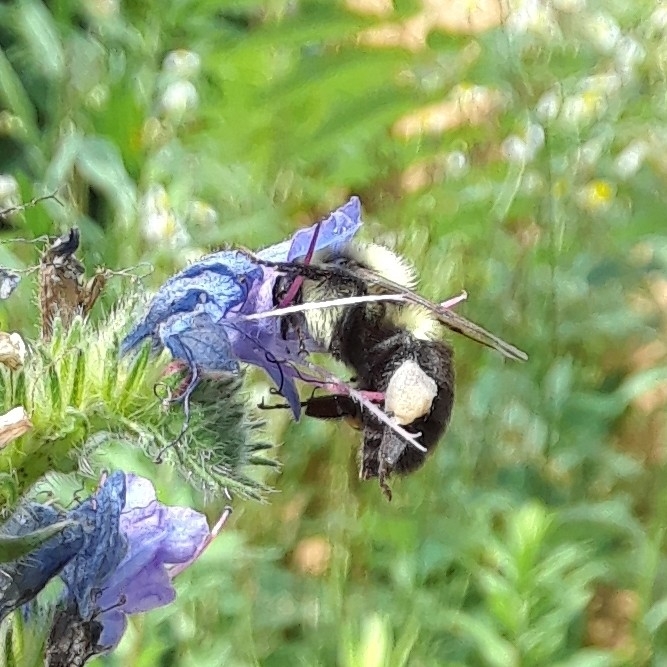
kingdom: Animalia
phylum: Arthropoda
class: Insecta
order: Hymenoptera
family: Apidae
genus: Bombus
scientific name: Bombus impatiens
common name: Common eastern bumble bee
